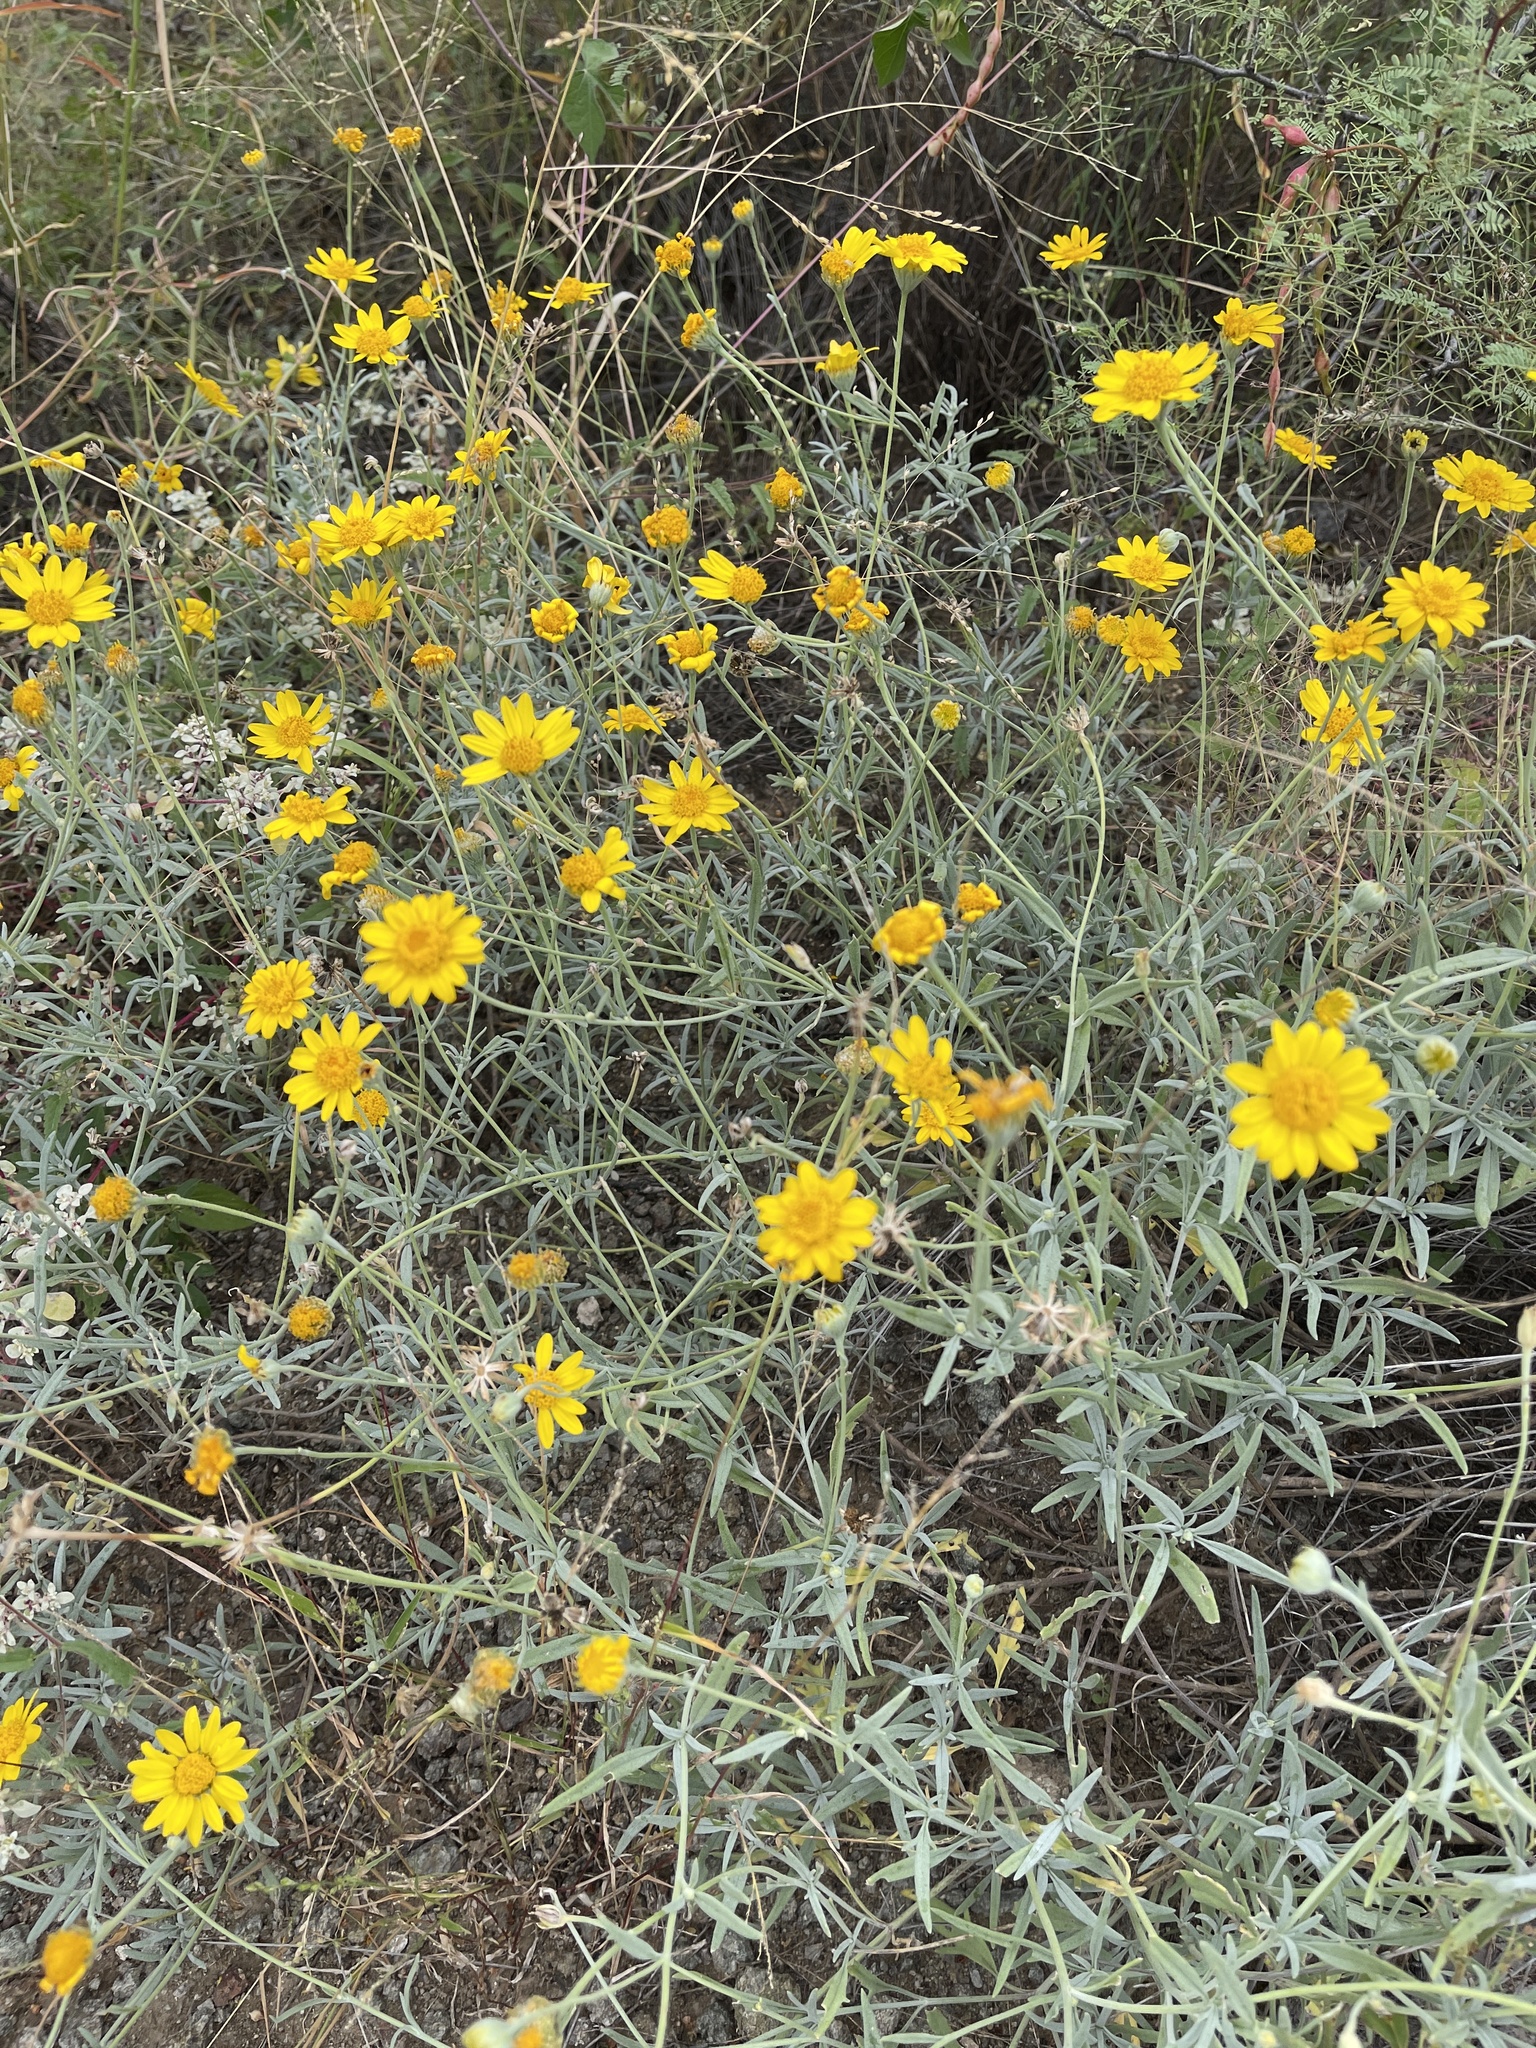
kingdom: Plantae
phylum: Tracheophyta
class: Magnoliopsida
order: Asterales
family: Asteraceae
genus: Picradeniopsis
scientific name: Picradeniopsis absinthifolia
